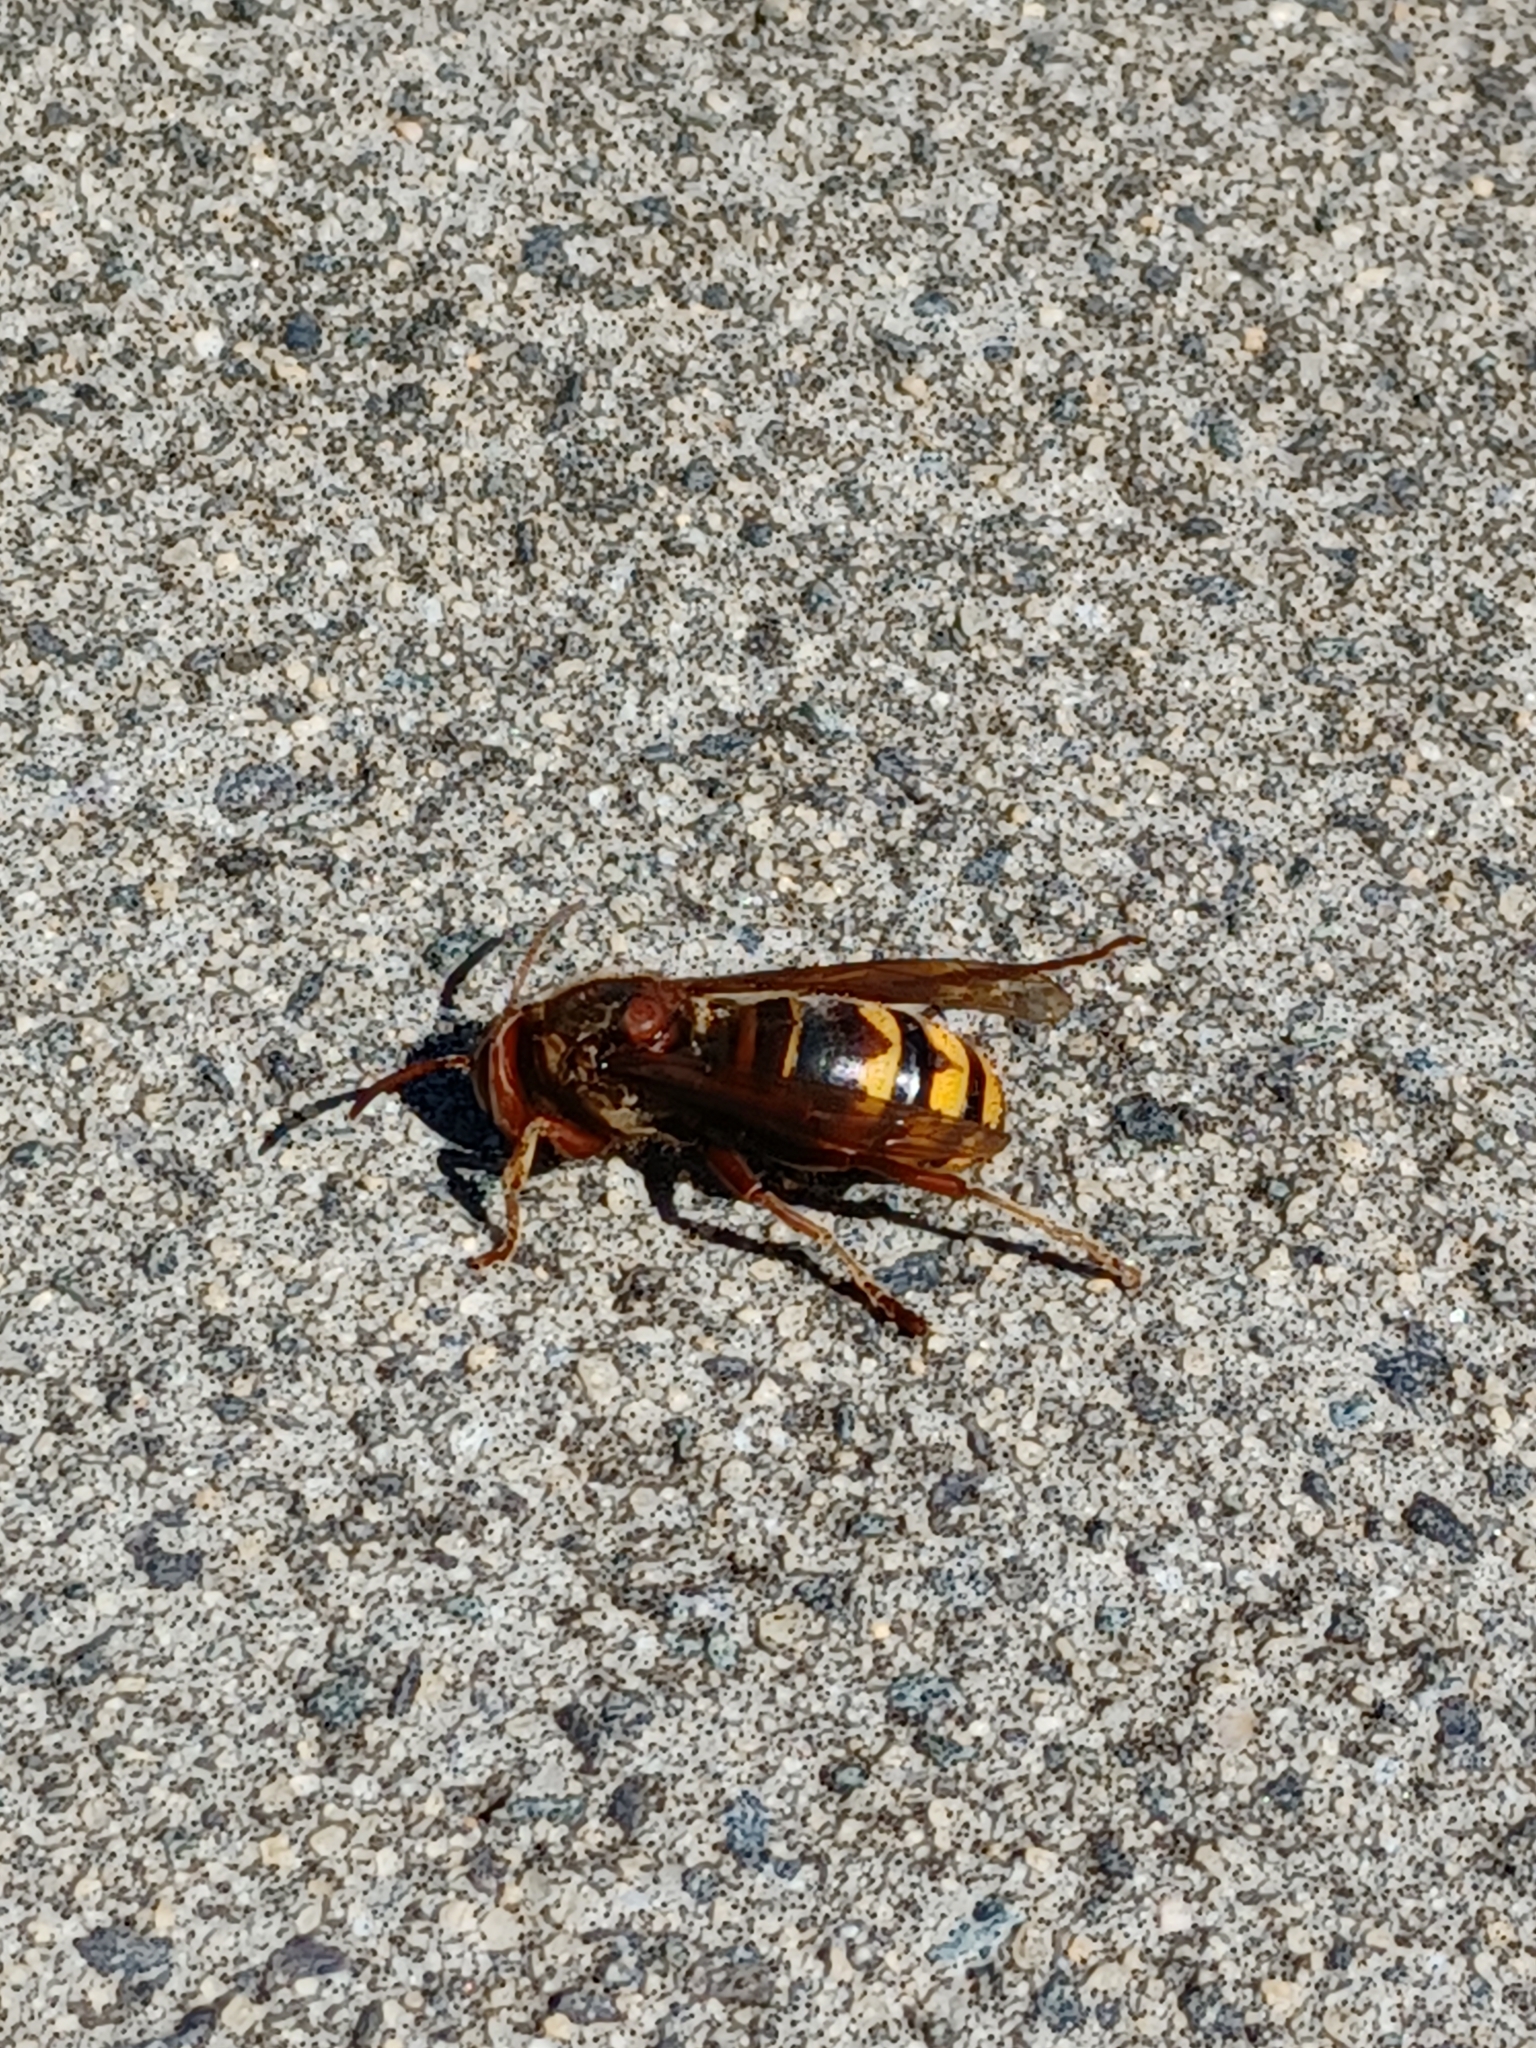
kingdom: Animalia
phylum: Arthropoda
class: Insecta
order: Hymenoptera
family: Vespidae
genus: Vespa
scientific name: Vespa crabro
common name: Hornet
